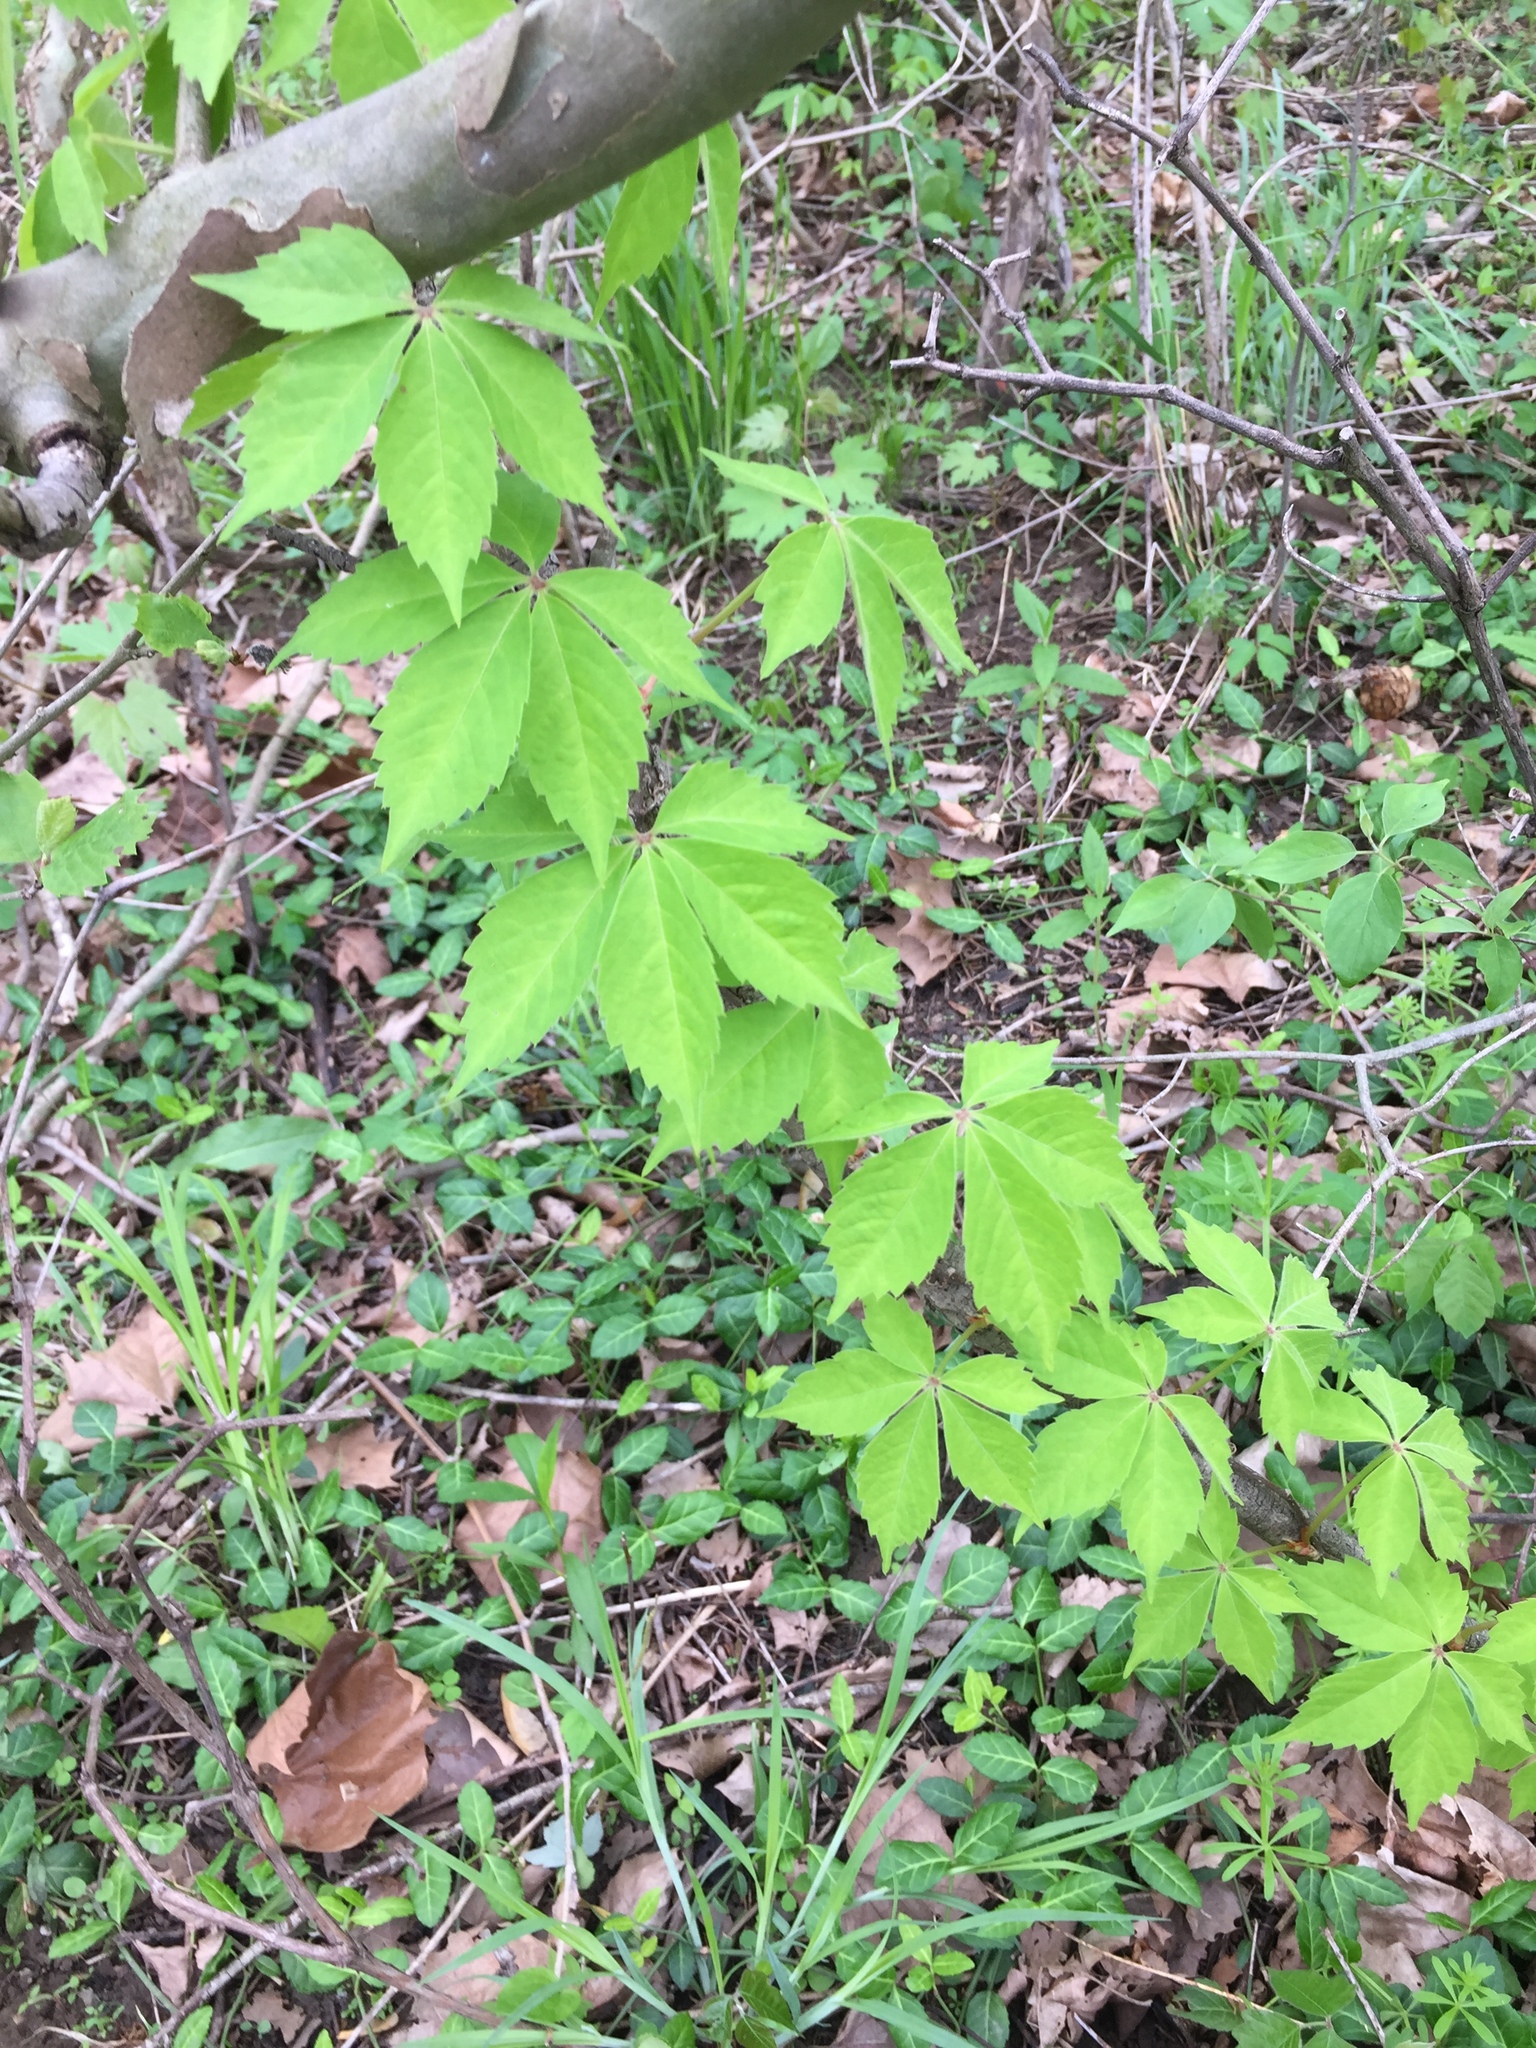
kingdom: Plantae
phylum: Tracheophyta
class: Magnoliopsida
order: Vitales
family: Vitaceae
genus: Parthenocissus
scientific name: Parthenocissus quinquefolia
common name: Virginia-creeper
